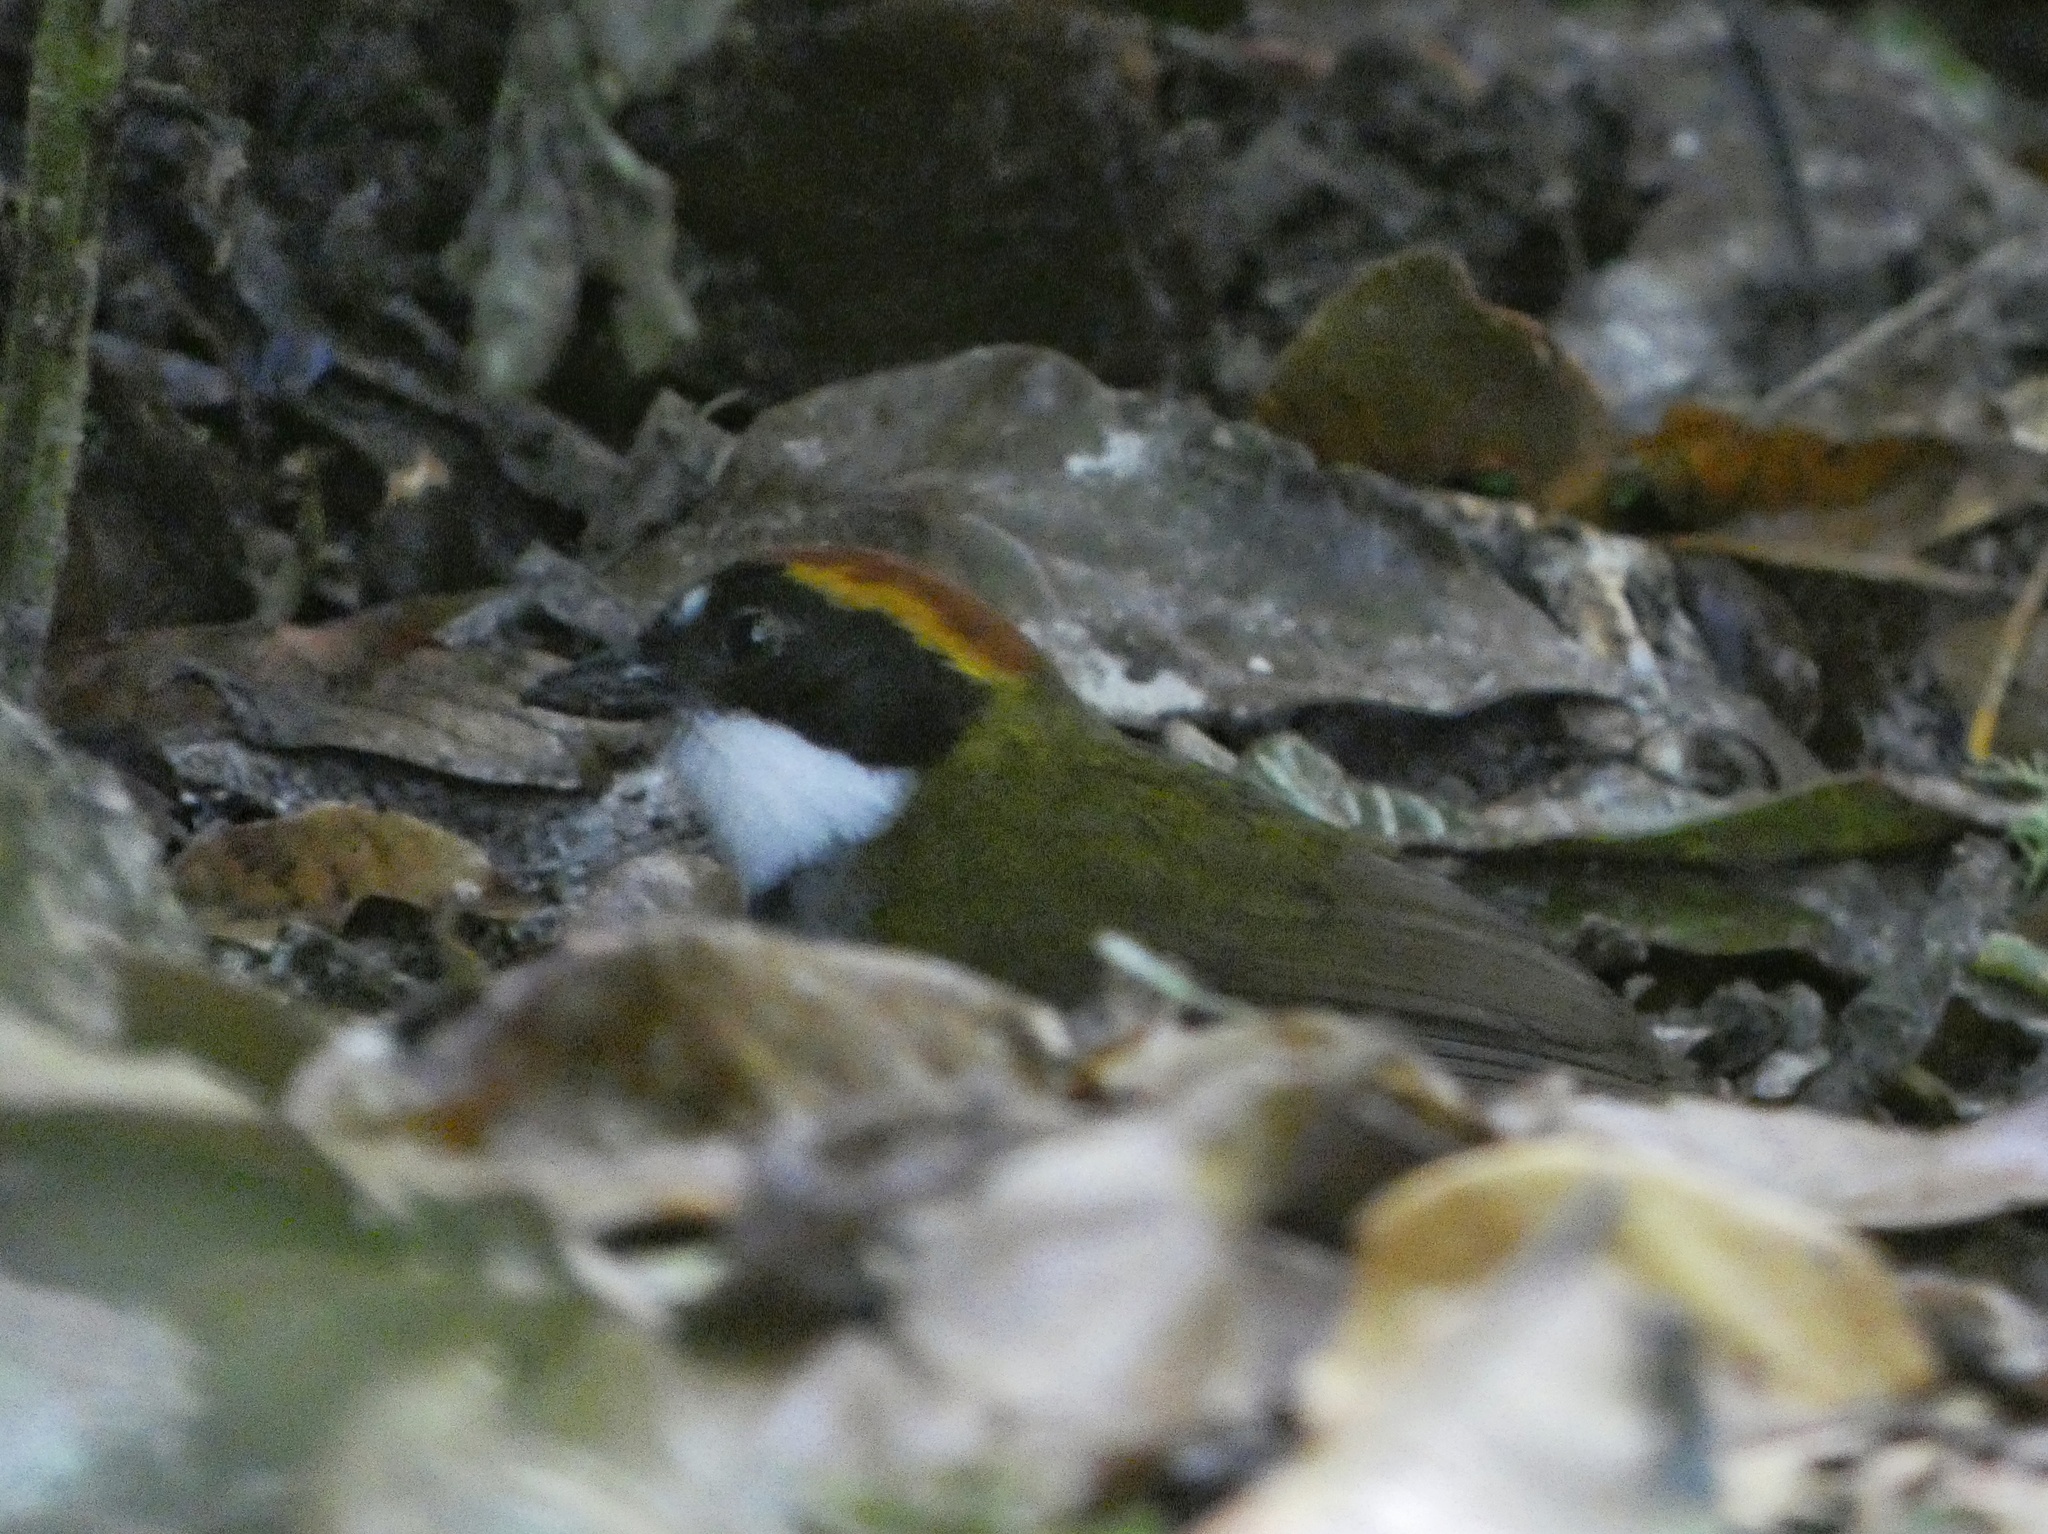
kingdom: Animalia
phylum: Chordata
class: Aves
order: Passeriformes
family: Passerellidae
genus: Arremon
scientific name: Arremon brunneinucha
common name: Chestnut-capped brushfinch
